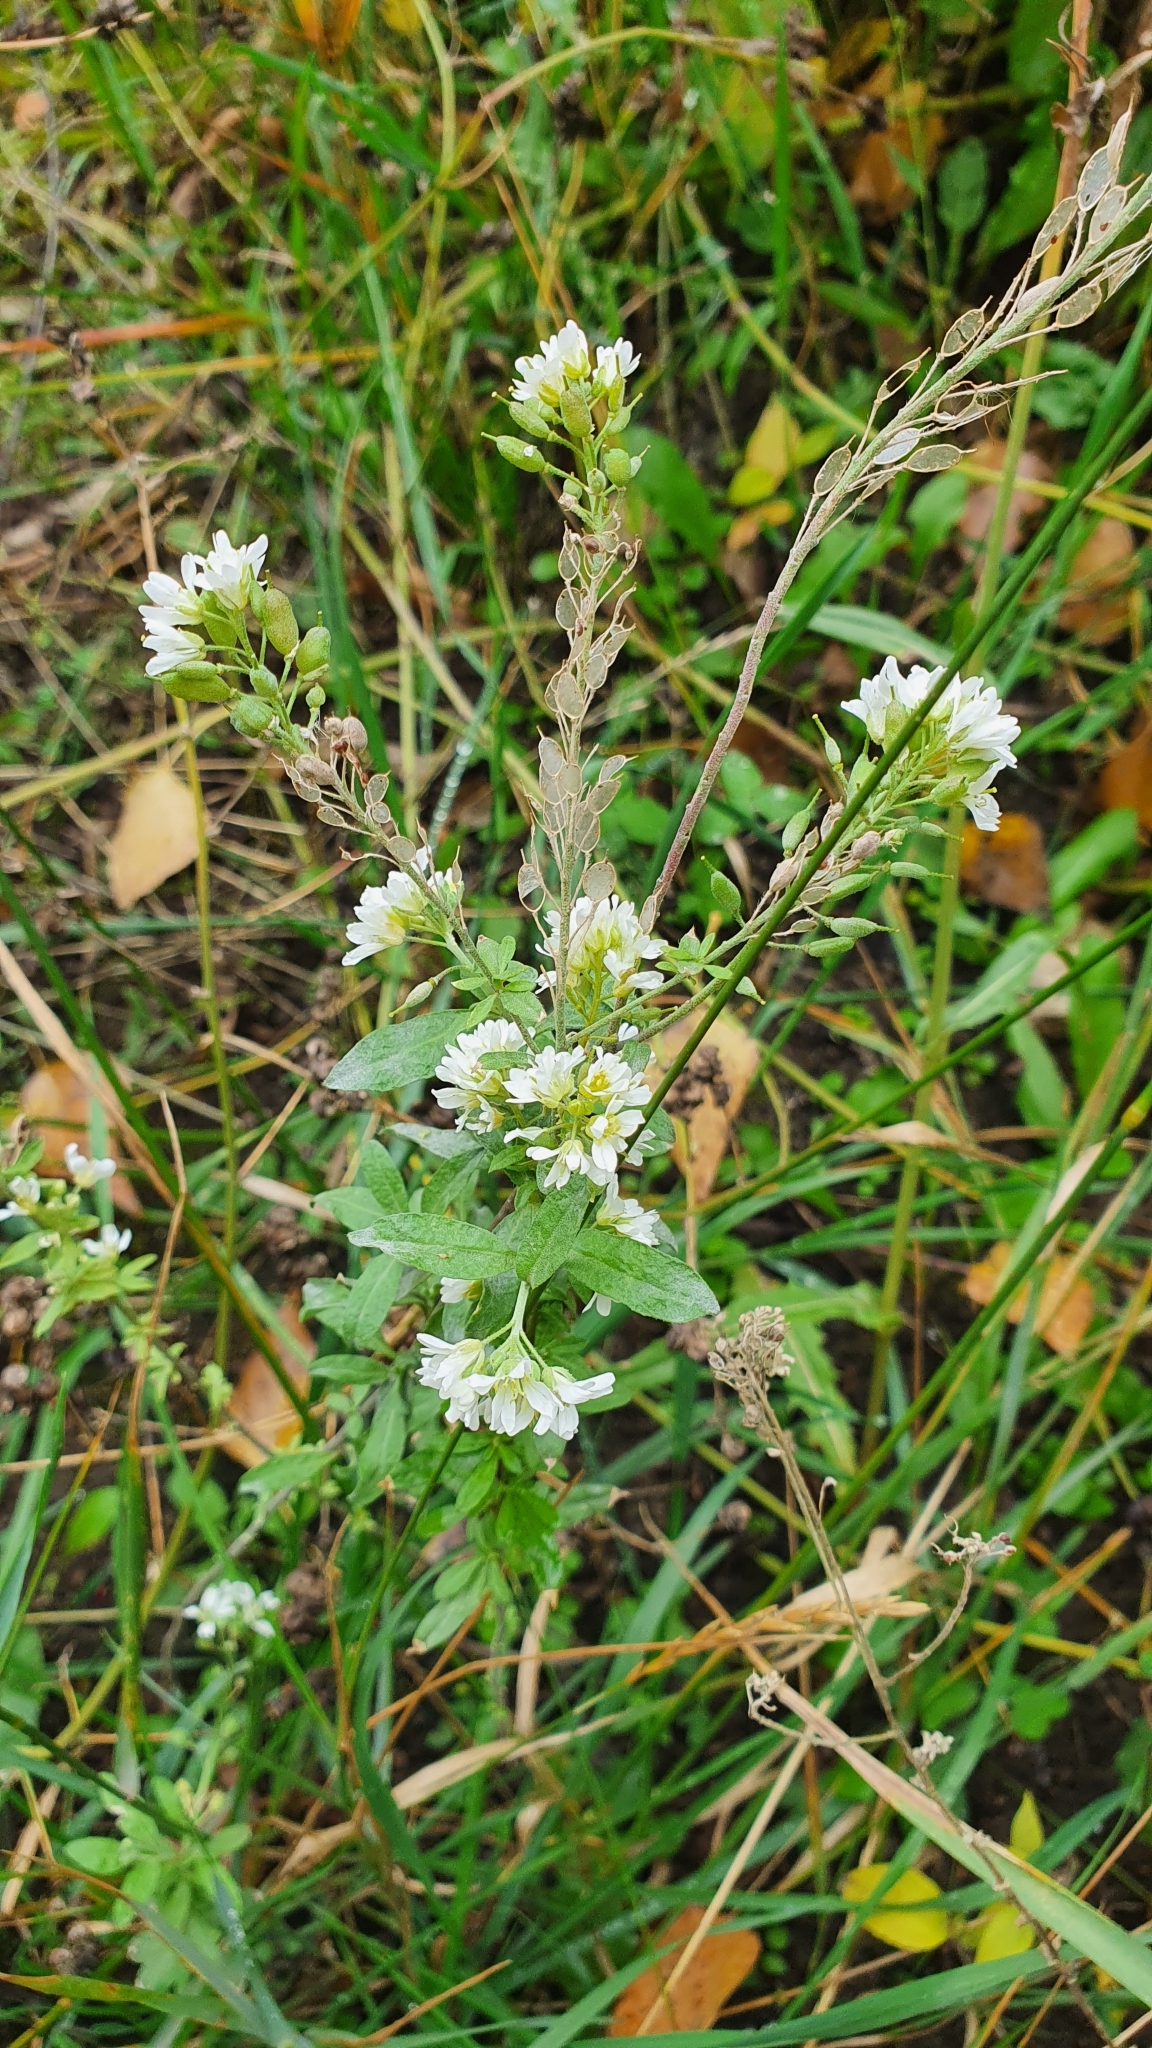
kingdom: Plantae
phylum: Tracheophyta
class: Magnoliopsida
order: Brassicales
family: Brassicaceae
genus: Berteroa
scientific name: Berteroa incana
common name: Hoary alison
